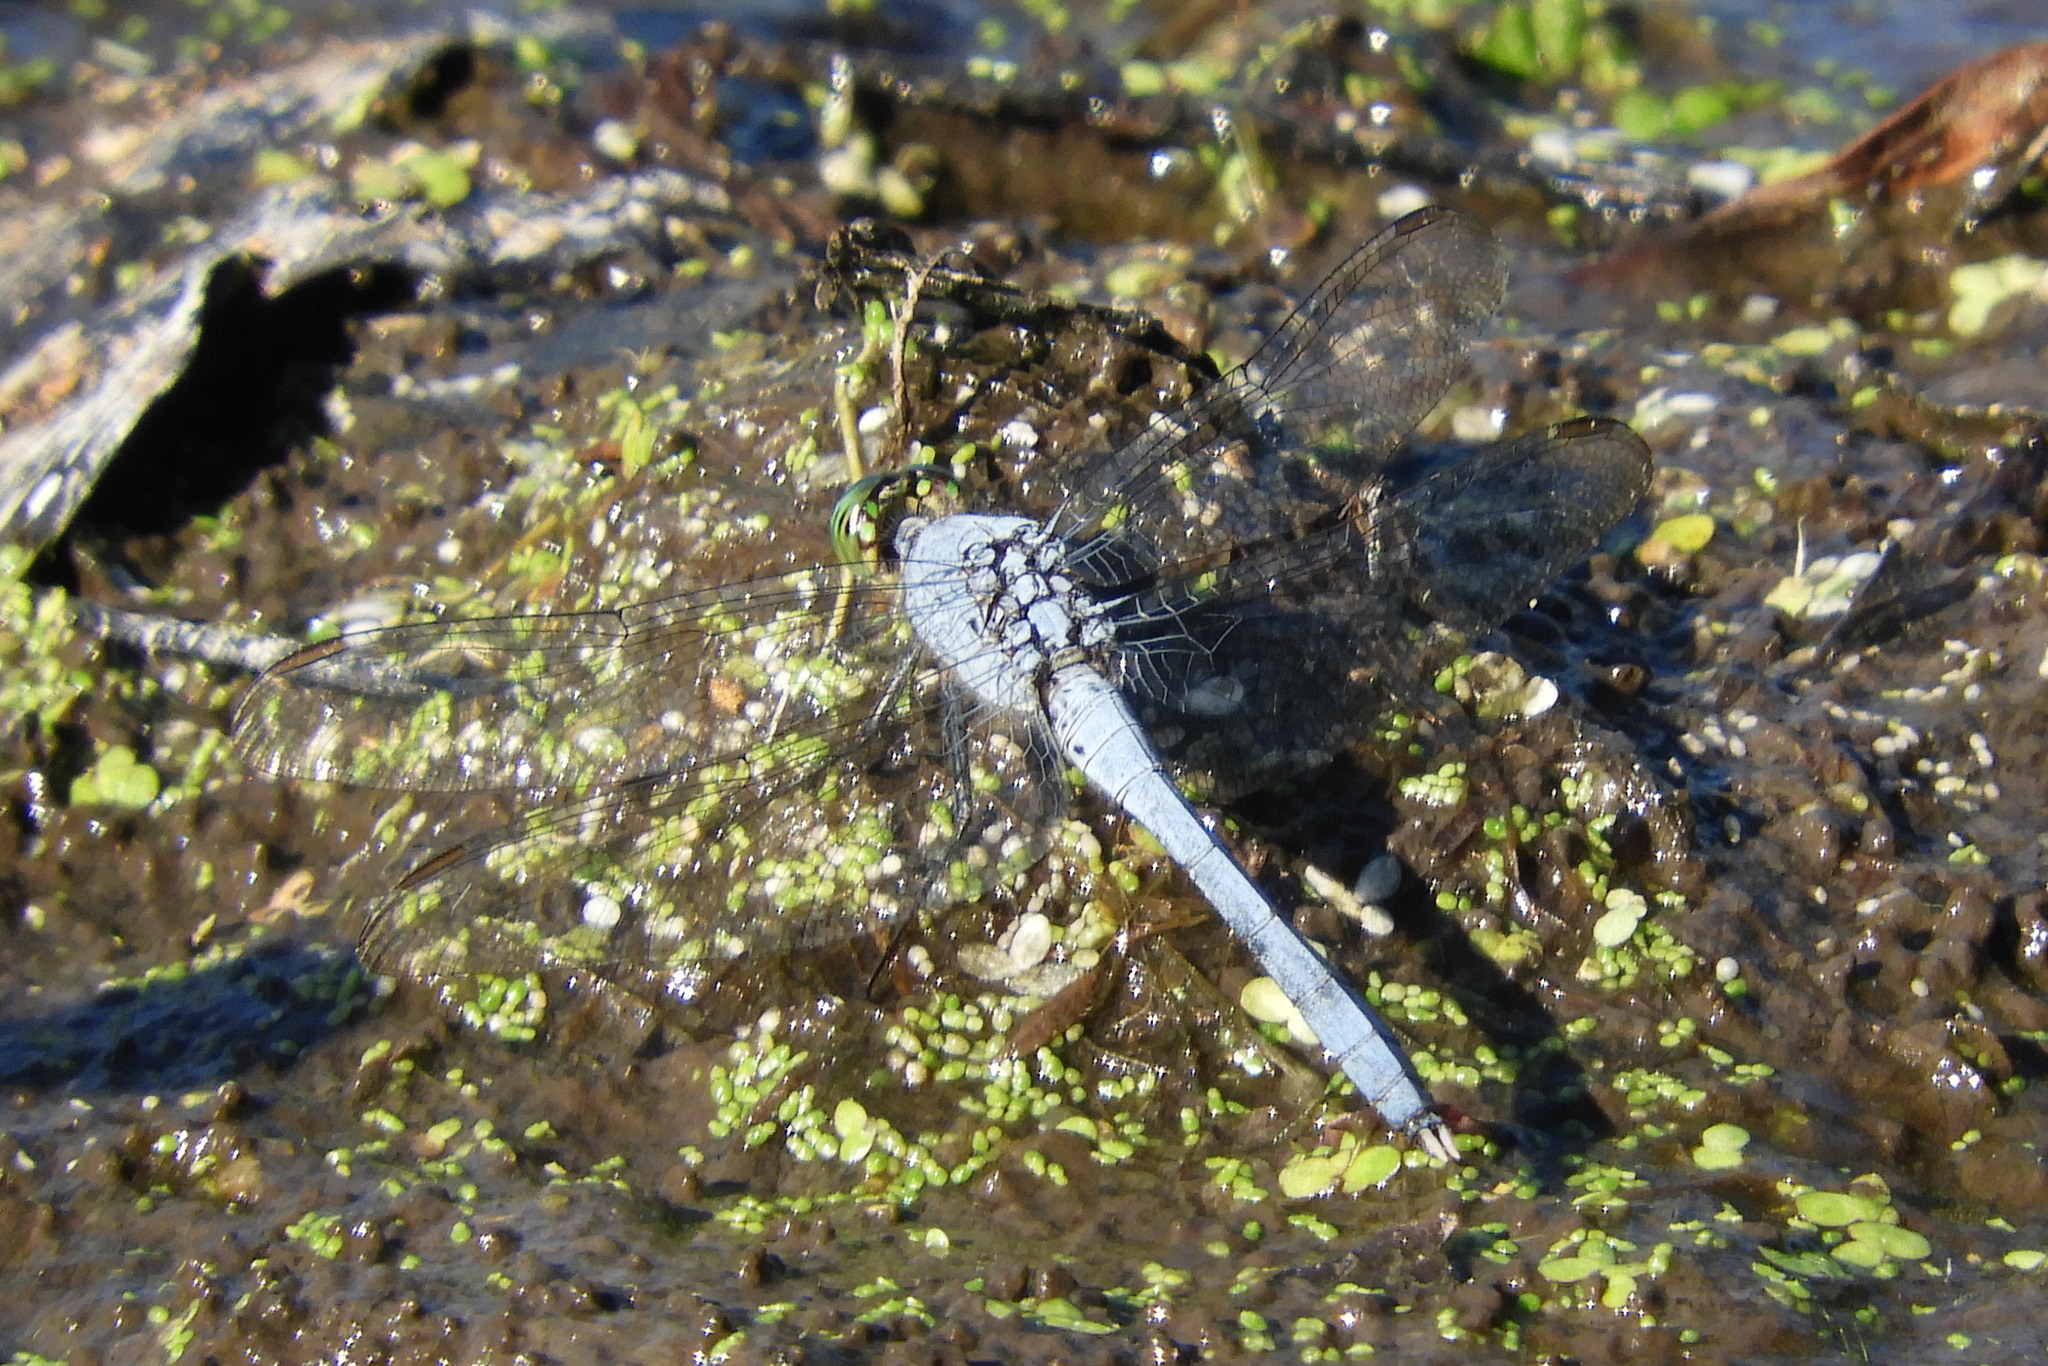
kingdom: Animalia
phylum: Arthropoda
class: Insecta
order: Odonata
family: Libellulidae
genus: Erythemis
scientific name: Erythemis simplicicollis
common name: Eastern pondhawk
